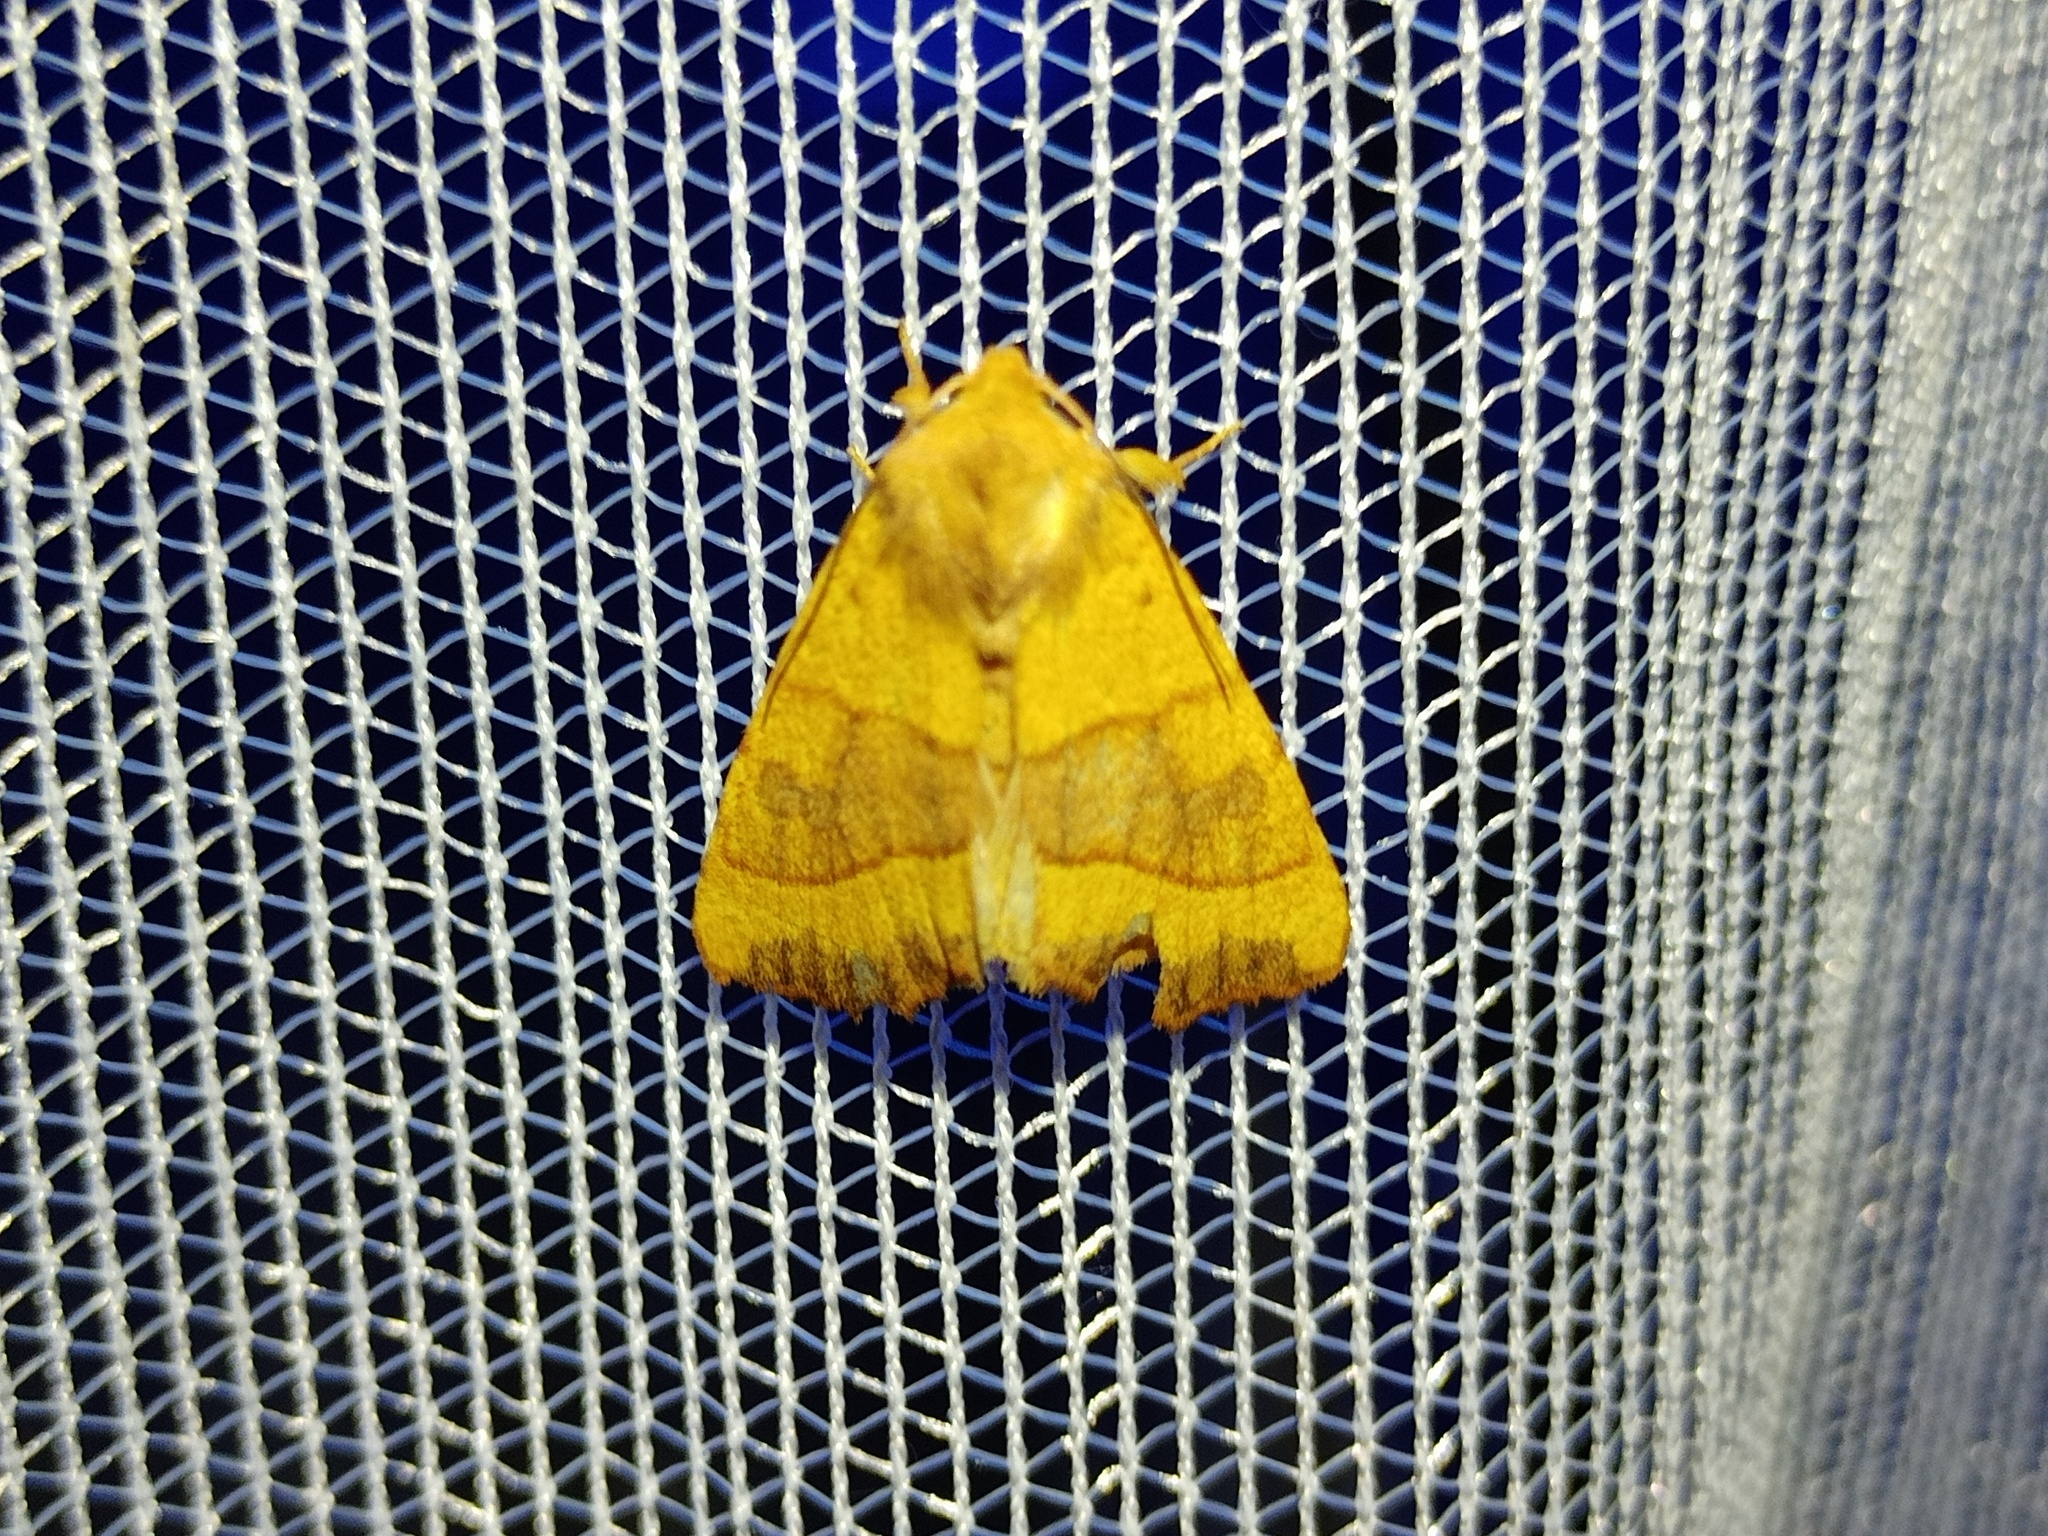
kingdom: Animalia
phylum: Arthropoda
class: Insecta
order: Lepidoptera
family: Noctuidae
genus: Atethmia
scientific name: Atethmia centrago
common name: Centre-barred sallow
